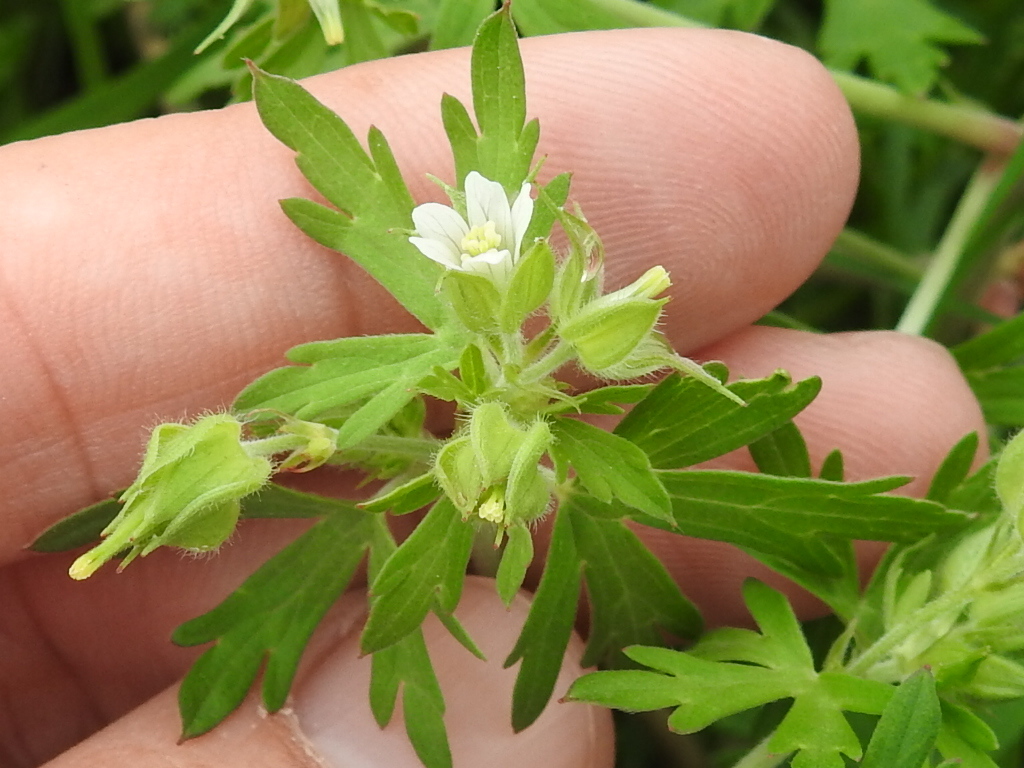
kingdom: Plantae
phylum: Tracheophyta
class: Magnoliopsida
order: Geraniales
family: Geraniaceae
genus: Geranium
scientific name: Geranium carolinianum
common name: Carolina crane's-bill
